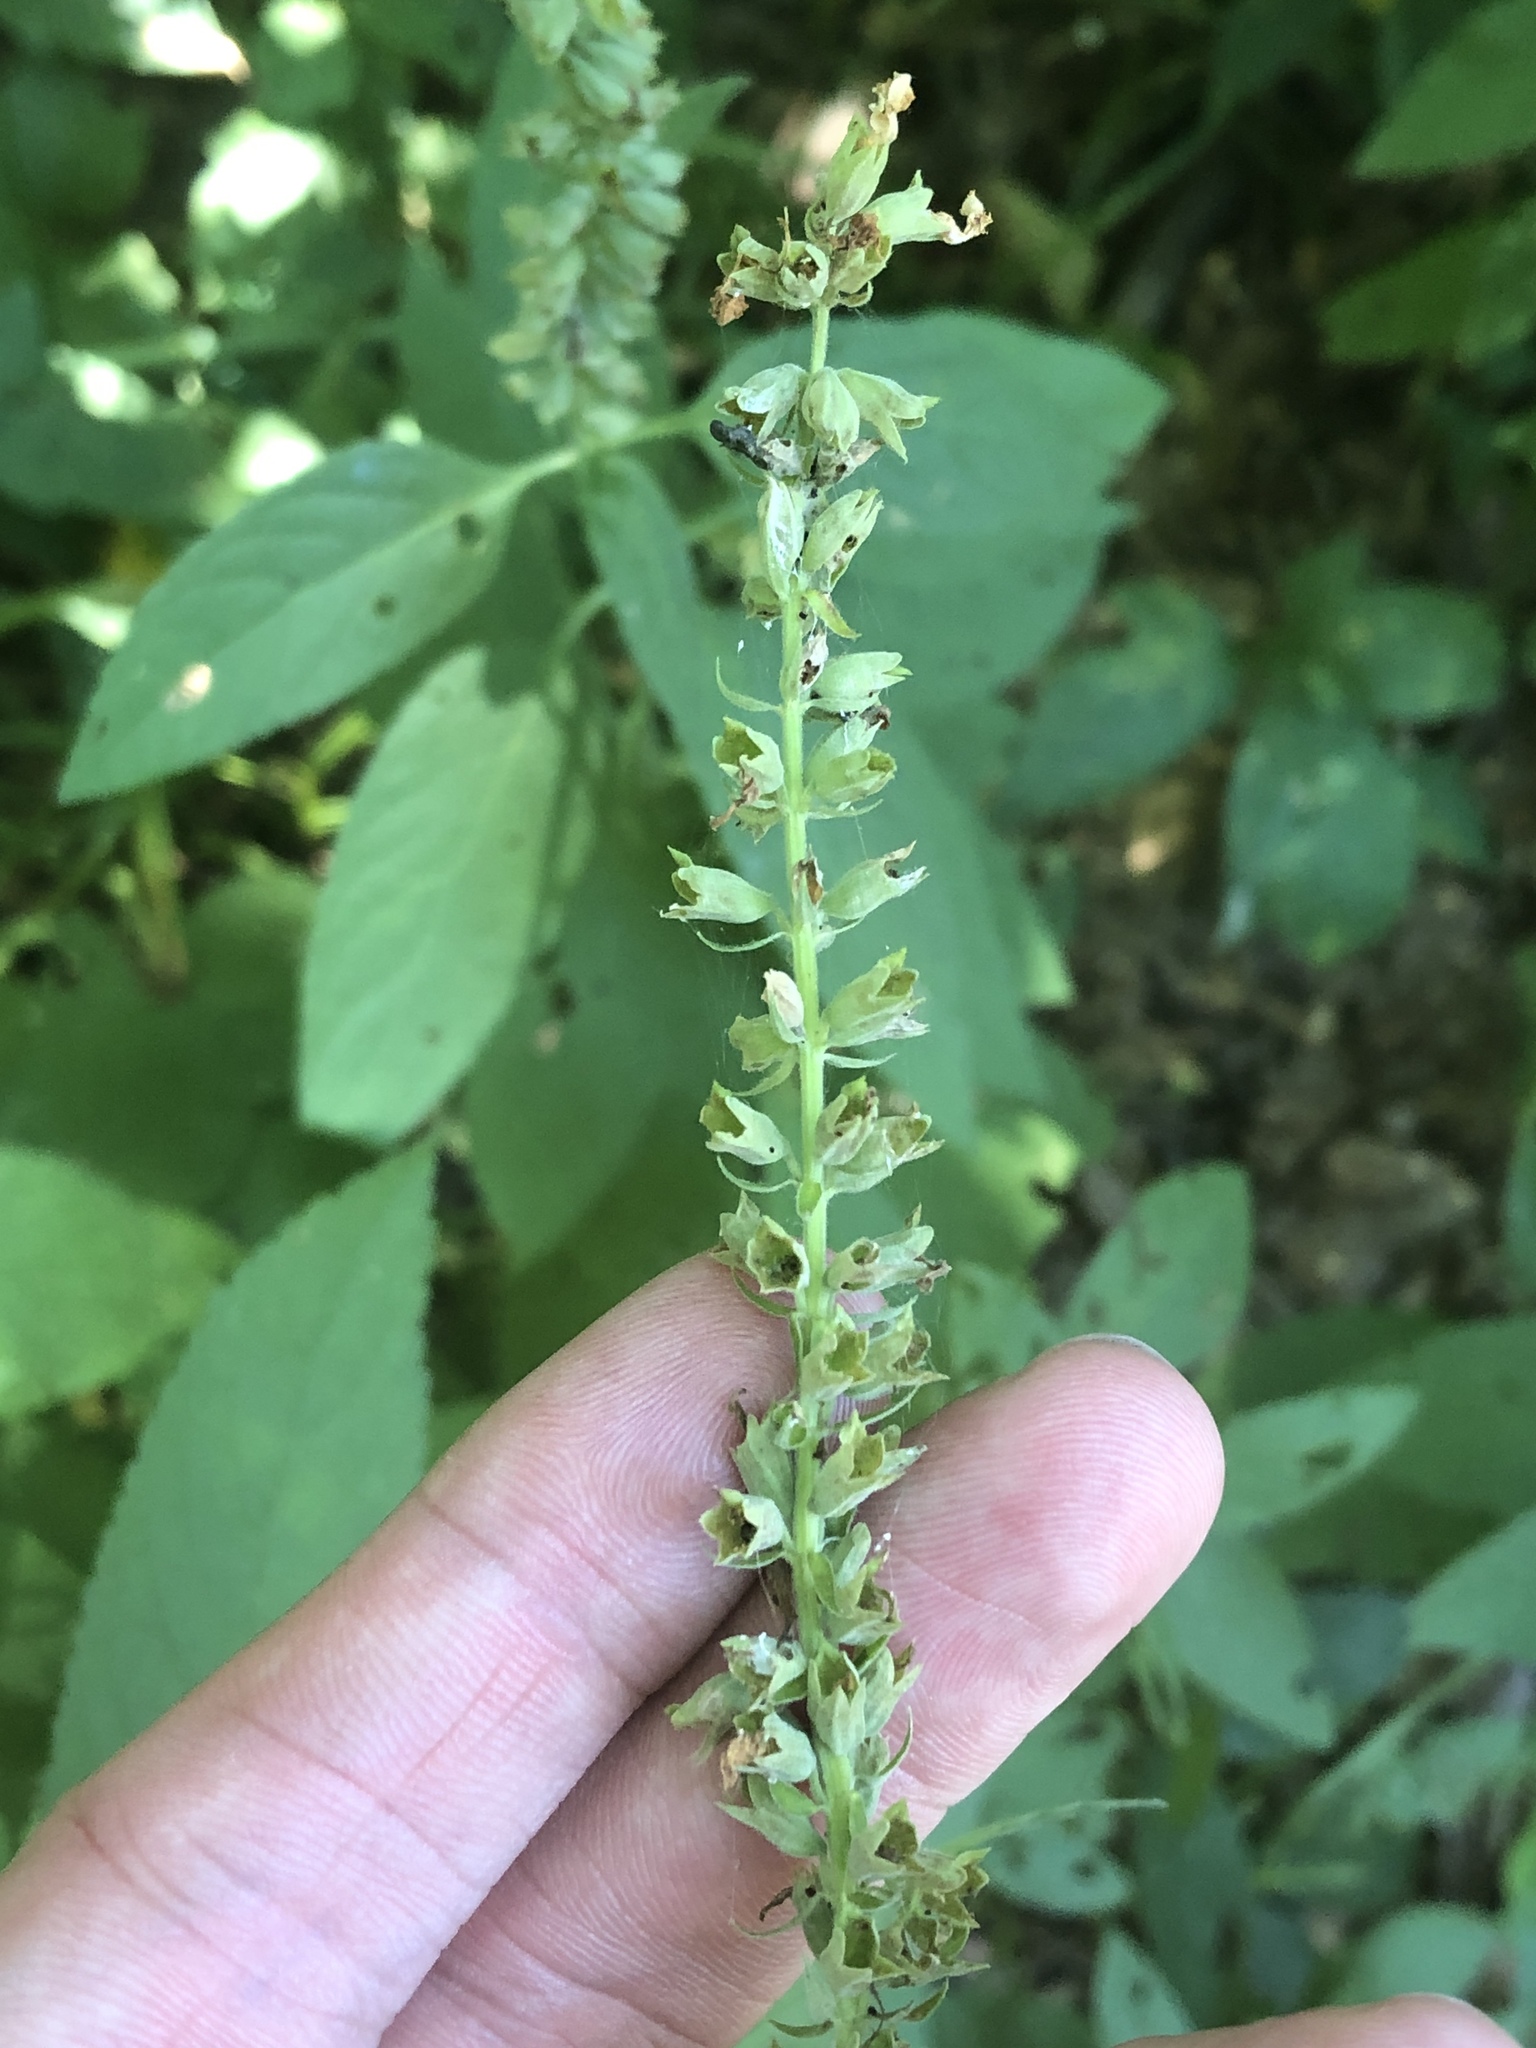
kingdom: Plantae
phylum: Tracheophyta
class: Magnoliopsida
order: Lamiales
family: Lamiaceae
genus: Teucrium
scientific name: Teucrium canadense
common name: American germander
